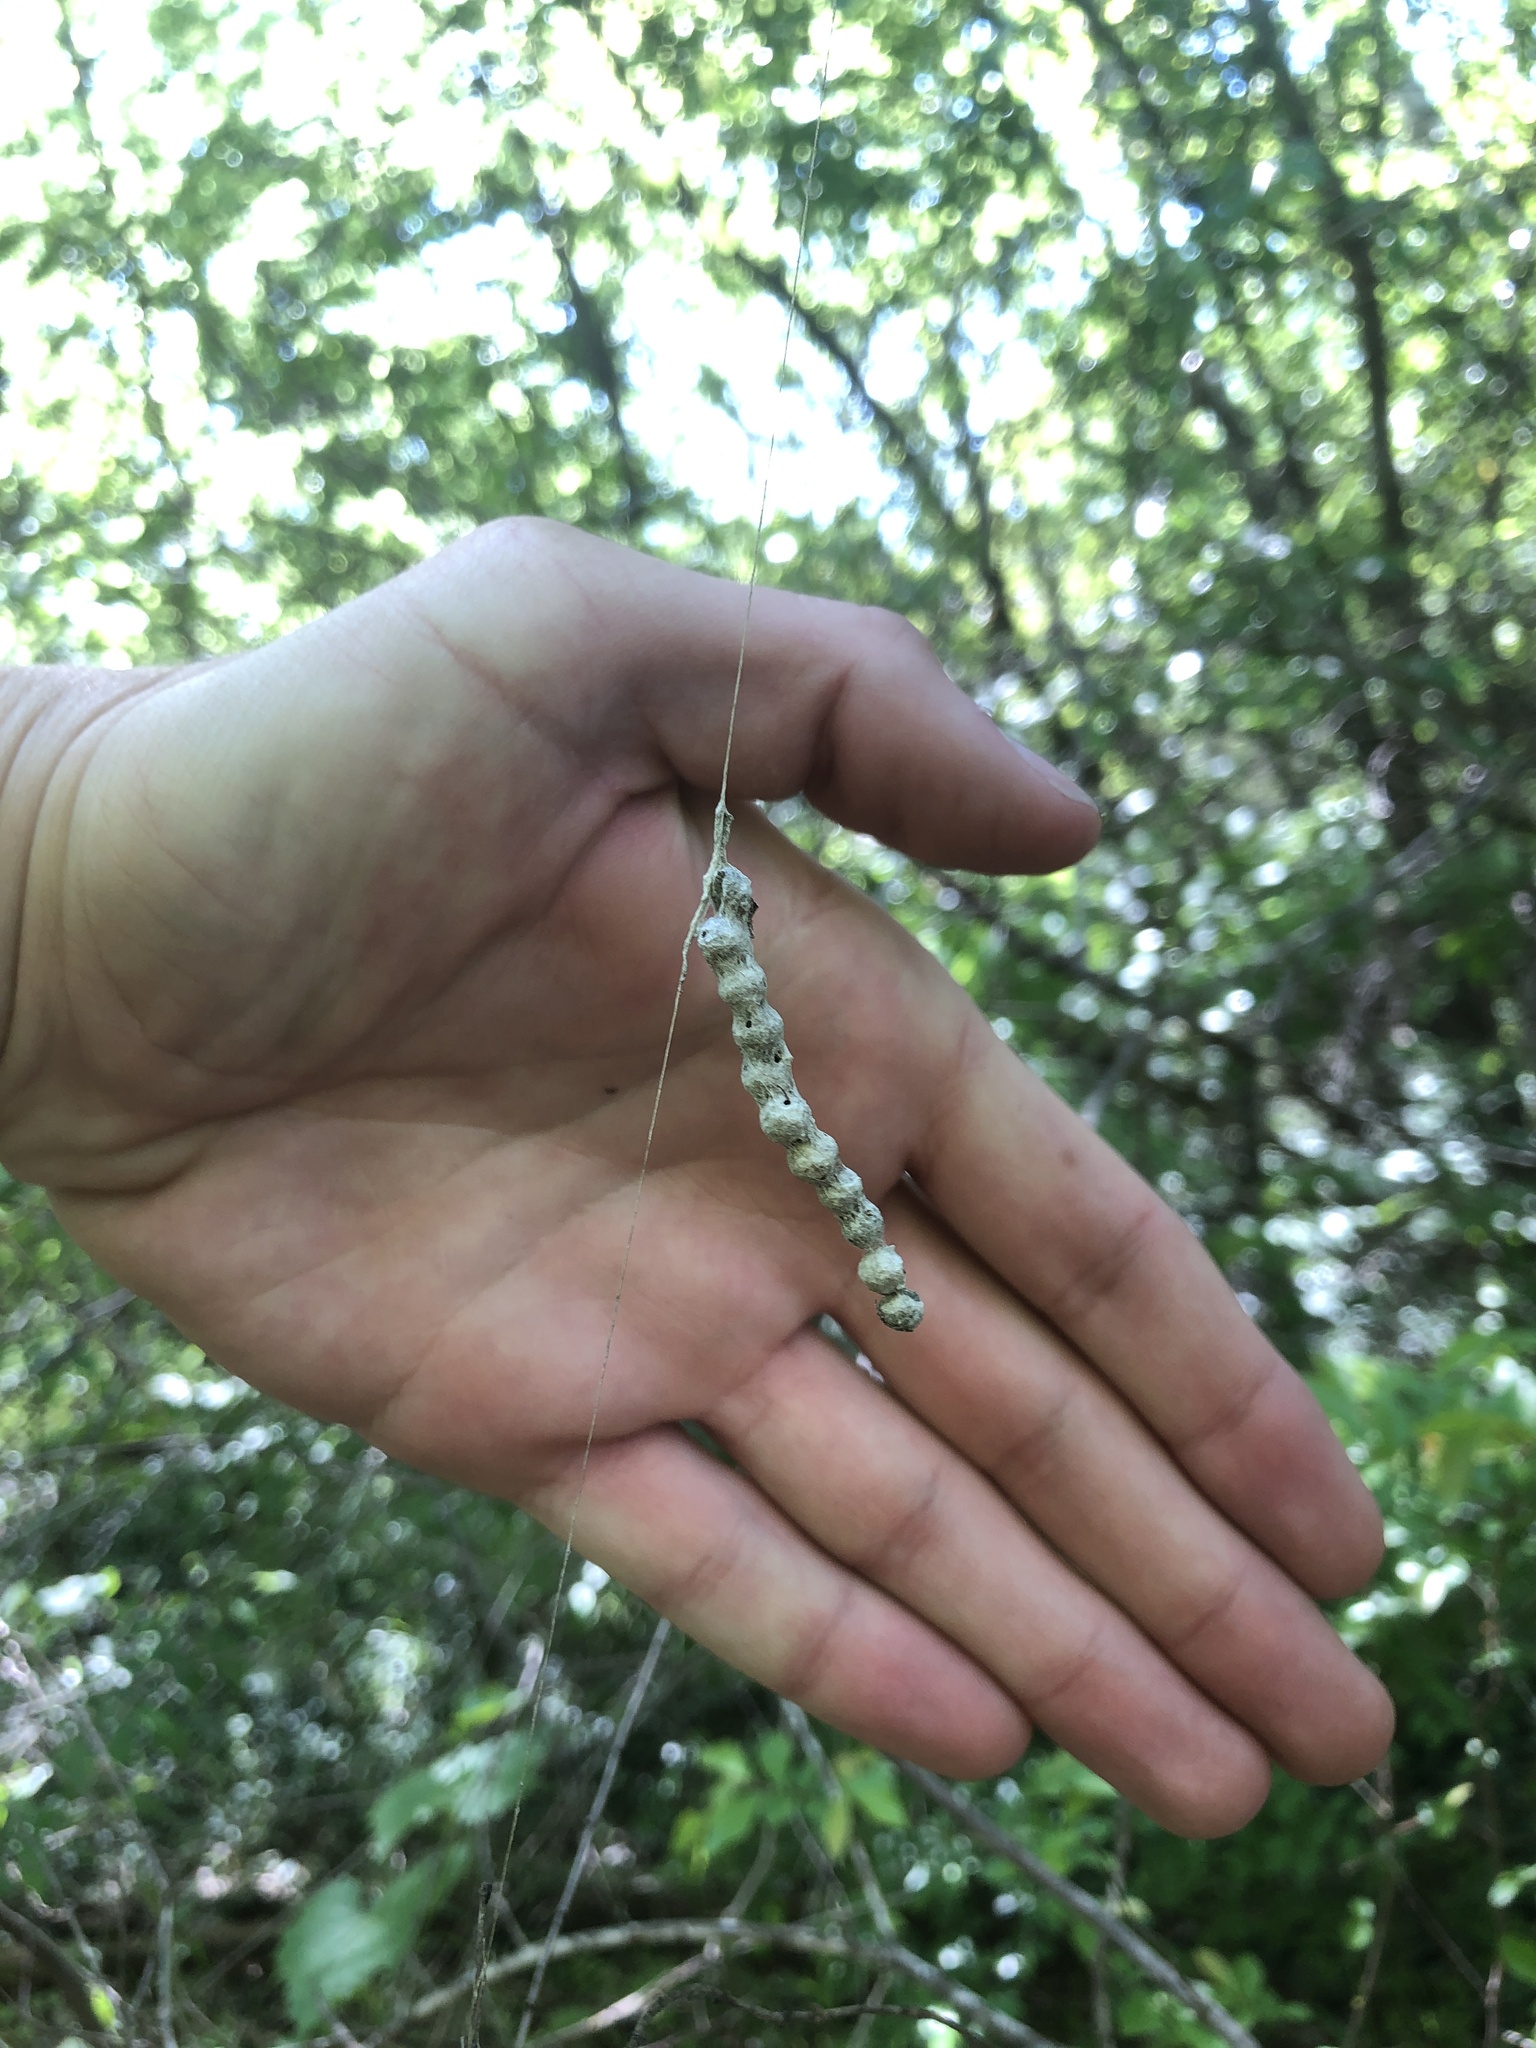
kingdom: Animalia
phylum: Arthropoda
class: Arachnida
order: Araneae
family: Araneidae
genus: Mecynogea
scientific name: Mecynogea lemniscata
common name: Orb weavers
